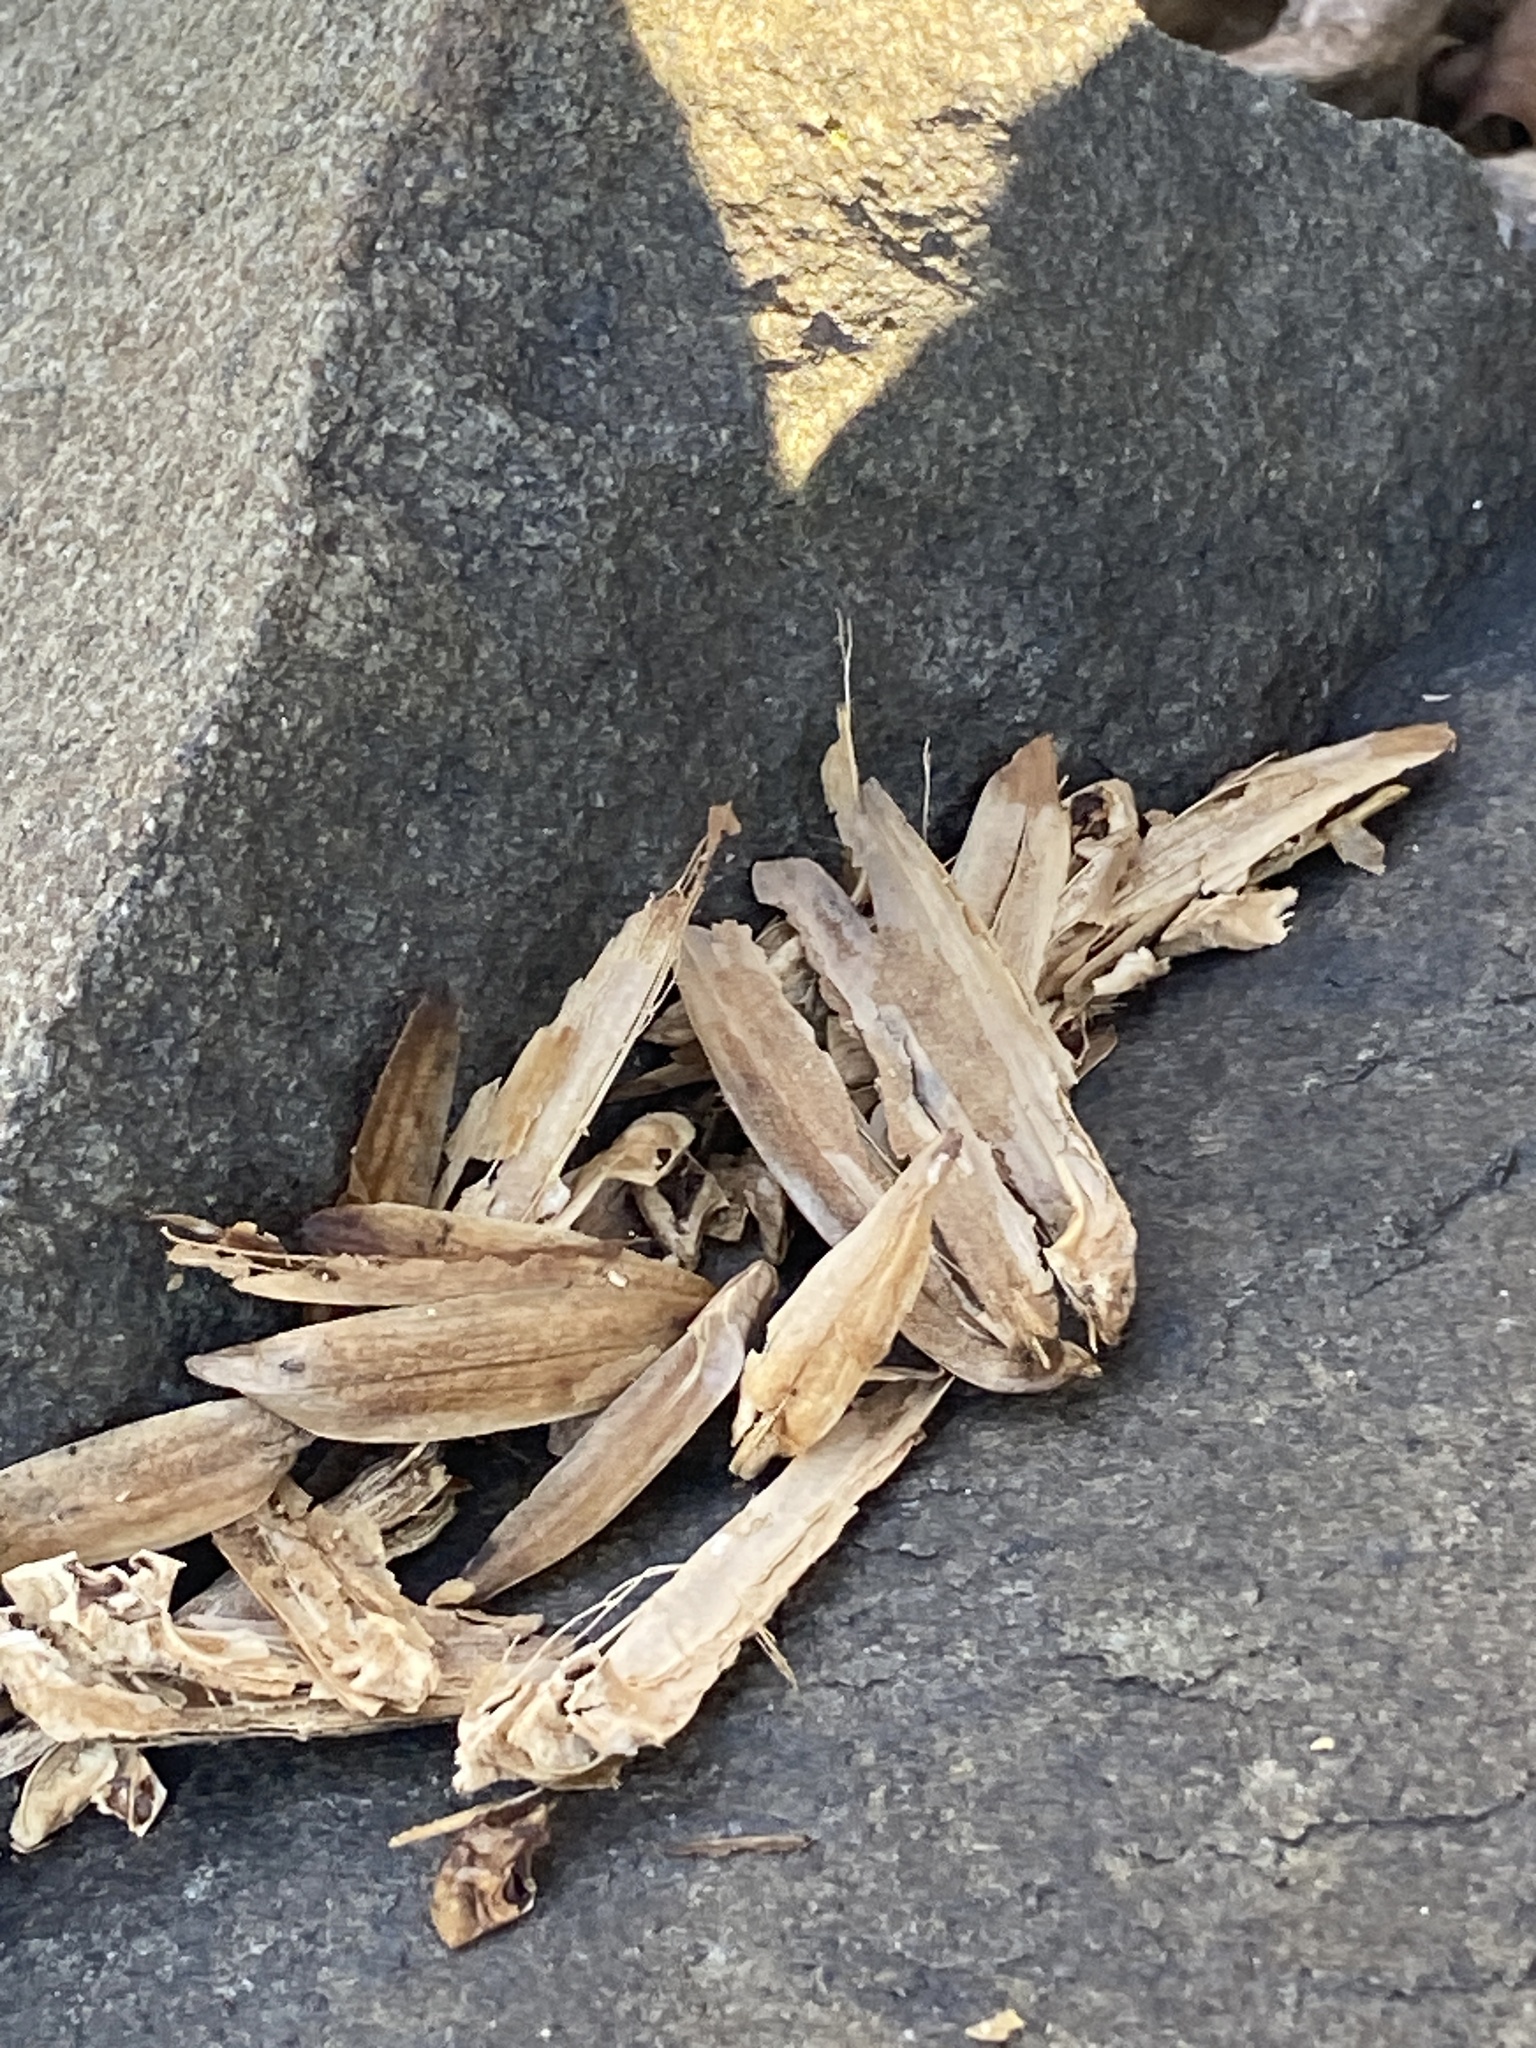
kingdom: Plantae
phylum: Tracheophyta
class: Magnoliopsida
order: Magnoliales
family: Magnoliaceae
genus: Liriodendron
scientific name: Liriodendron tulipifera
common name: Tulip tree
